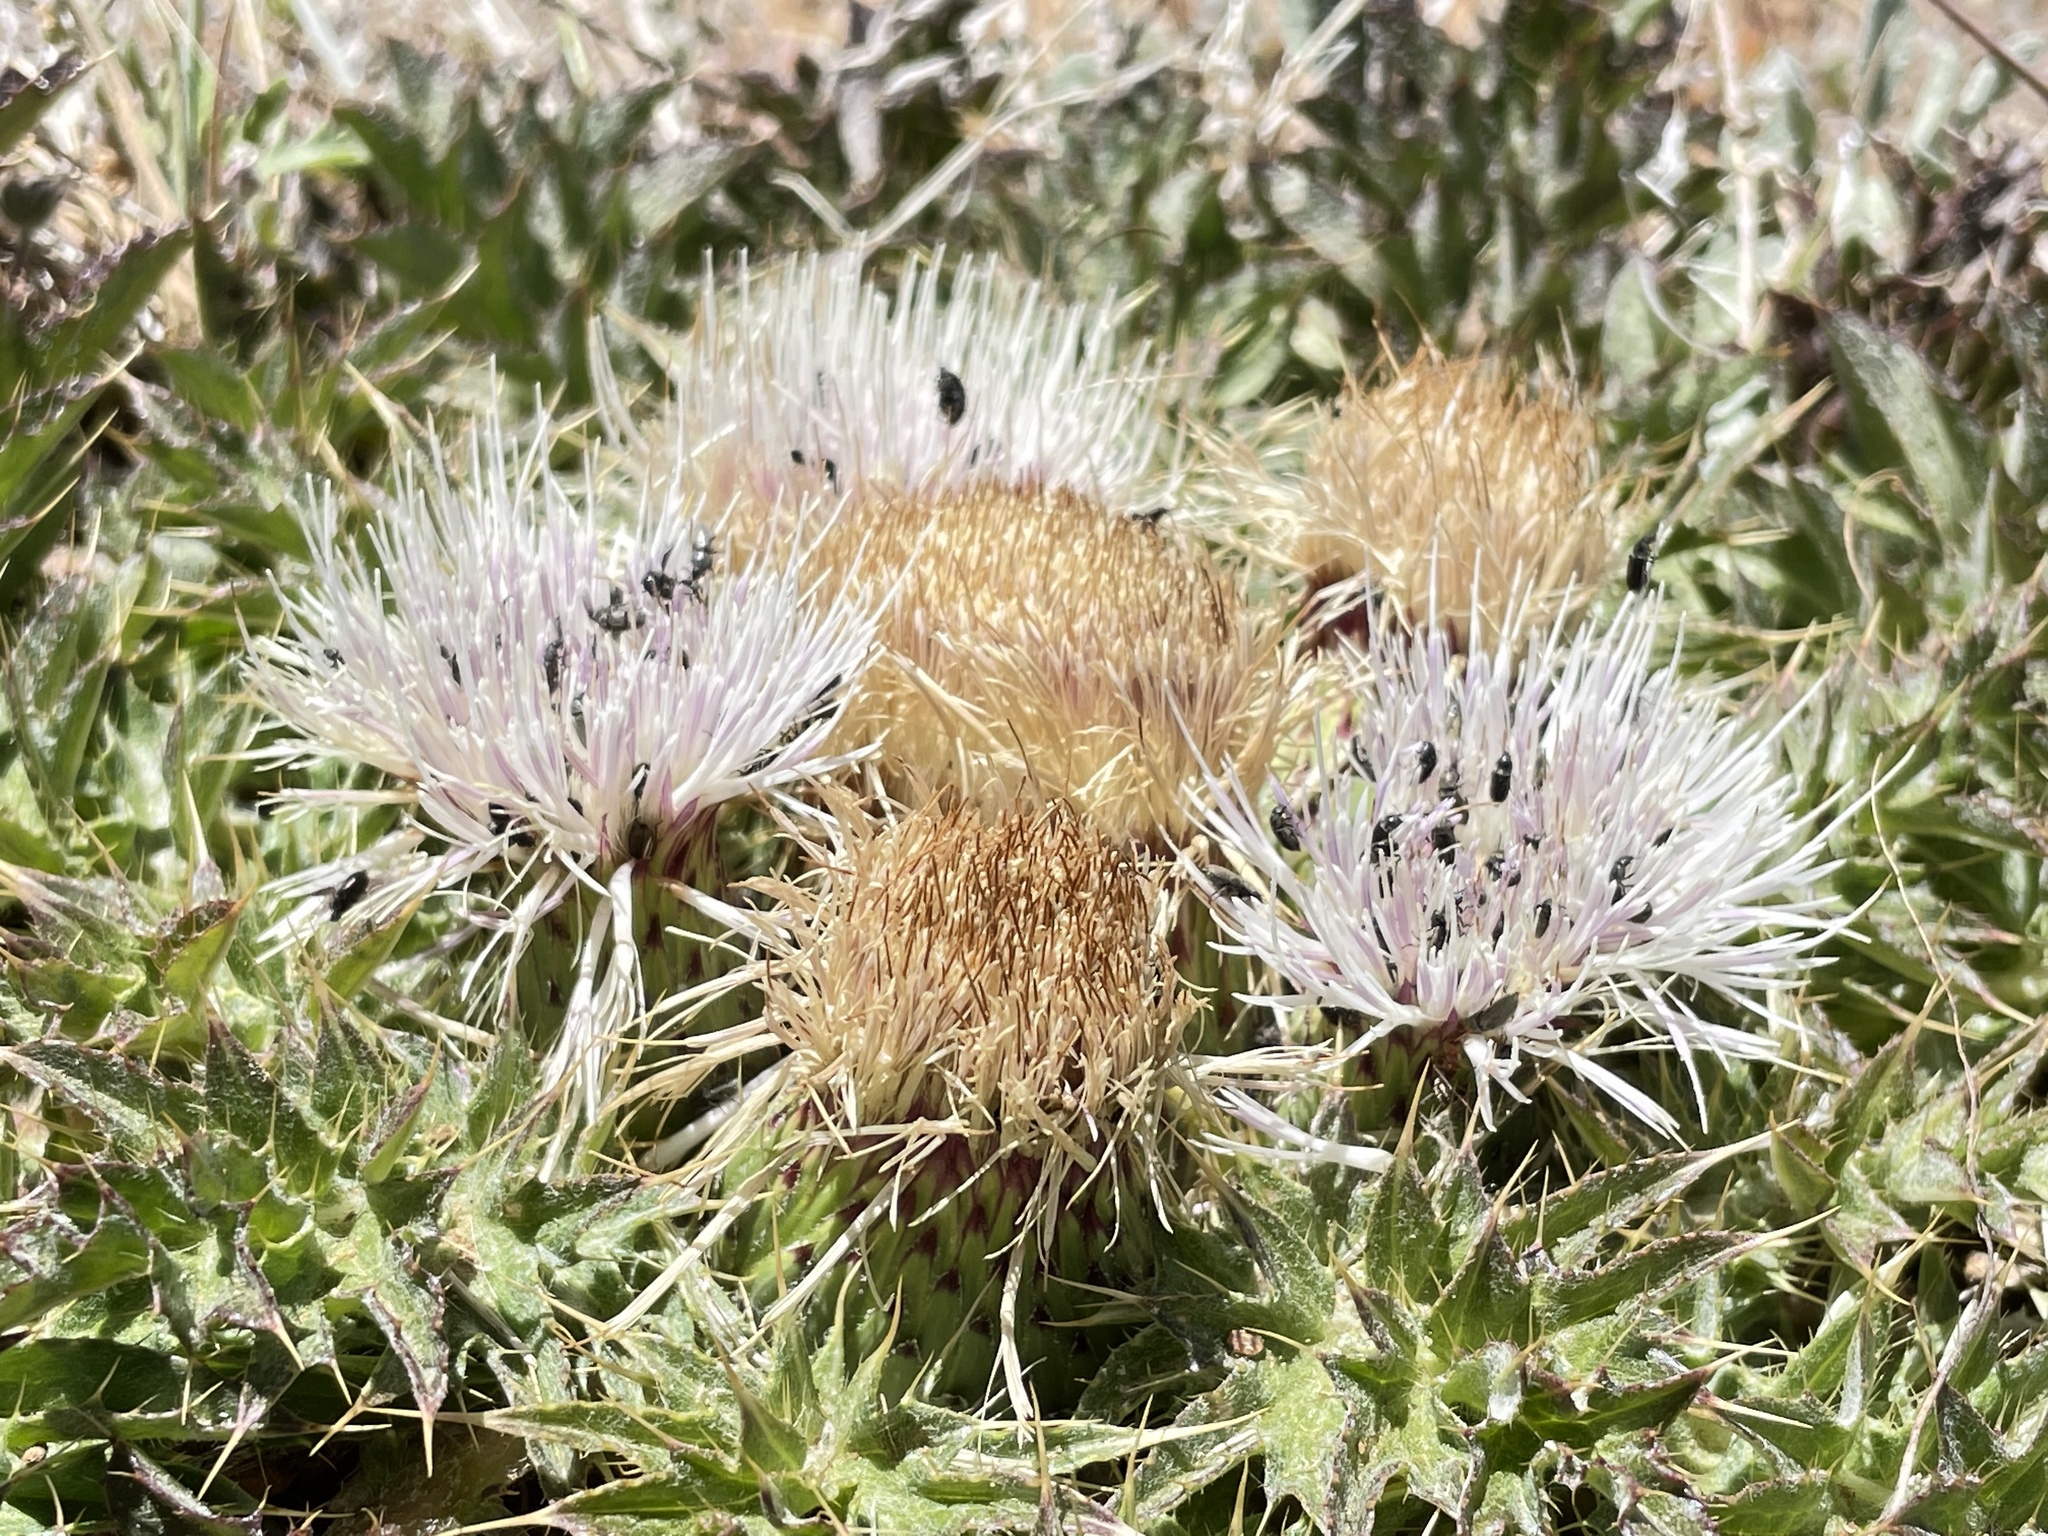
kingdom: Plantae
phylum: Tracheophyta
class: Magnoliopsida
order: Asterales
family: Asteraceae
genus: Cirsium
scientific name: Cirsium scariosum
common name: Meadow thistle
